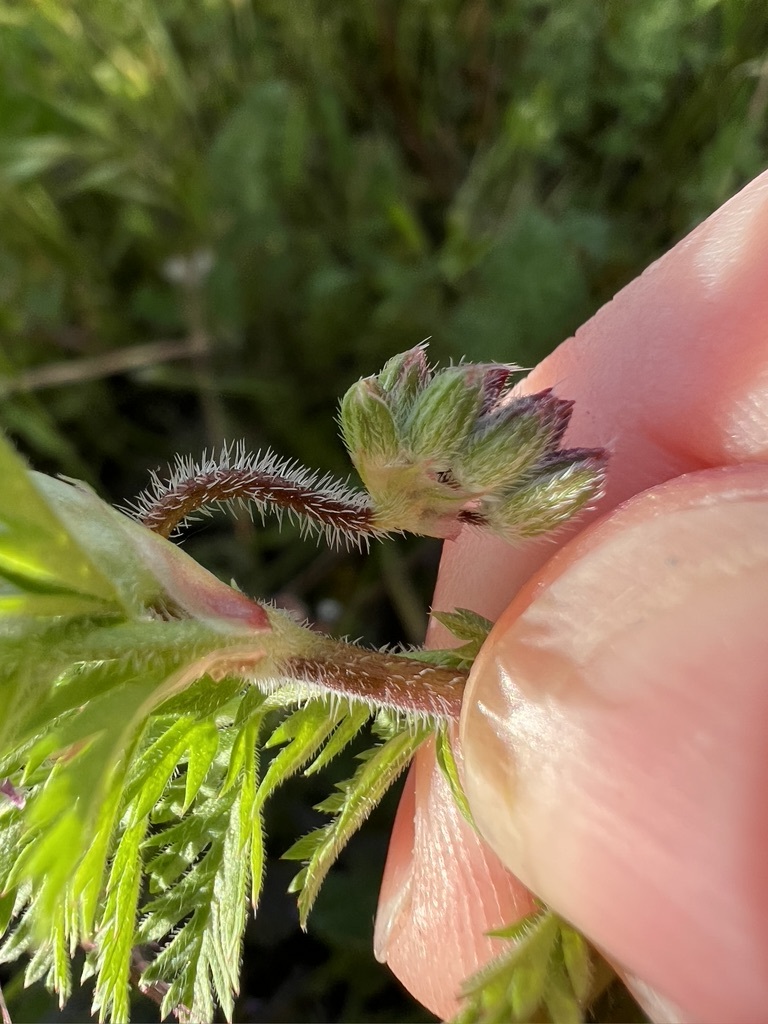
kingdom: Plantae
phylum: Tracheophyta
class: Magnoliopsida
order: Geraniales
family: Geraniaceae
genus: Erodium
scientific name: Erodium cicutarium
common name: Common stork's-bill
